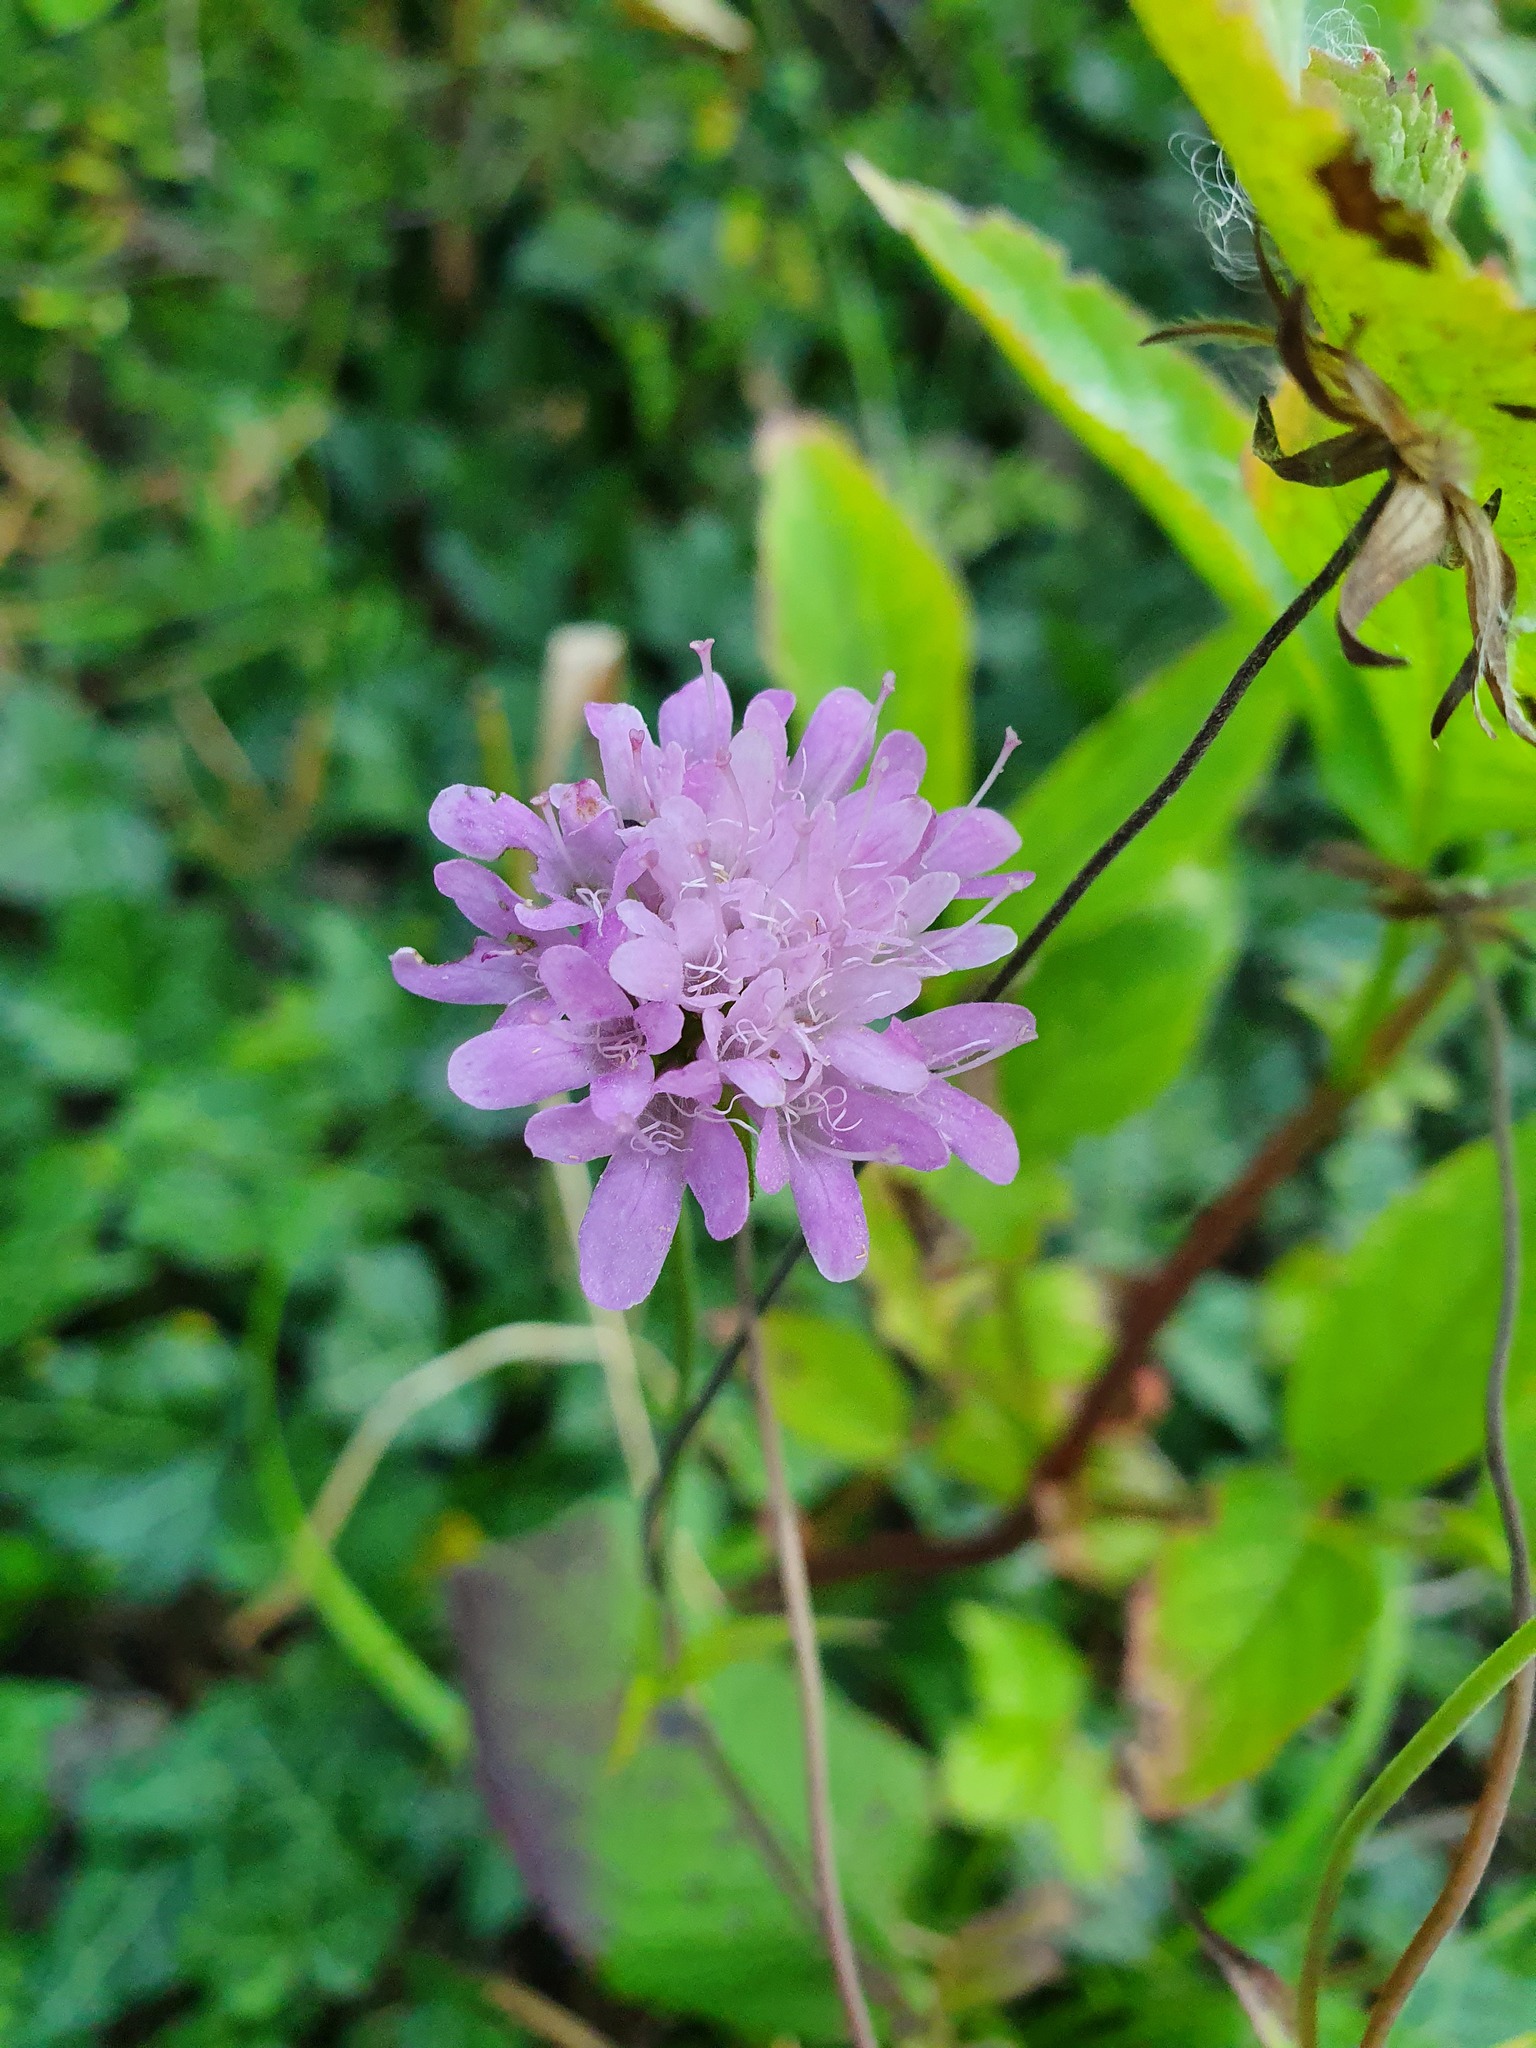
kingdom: Plantae
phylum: Tracheophyta
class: Magnoliopsida
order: Dipsacales
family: Caprifoliaceae
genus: Knautia
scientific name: Knautia drymeia
